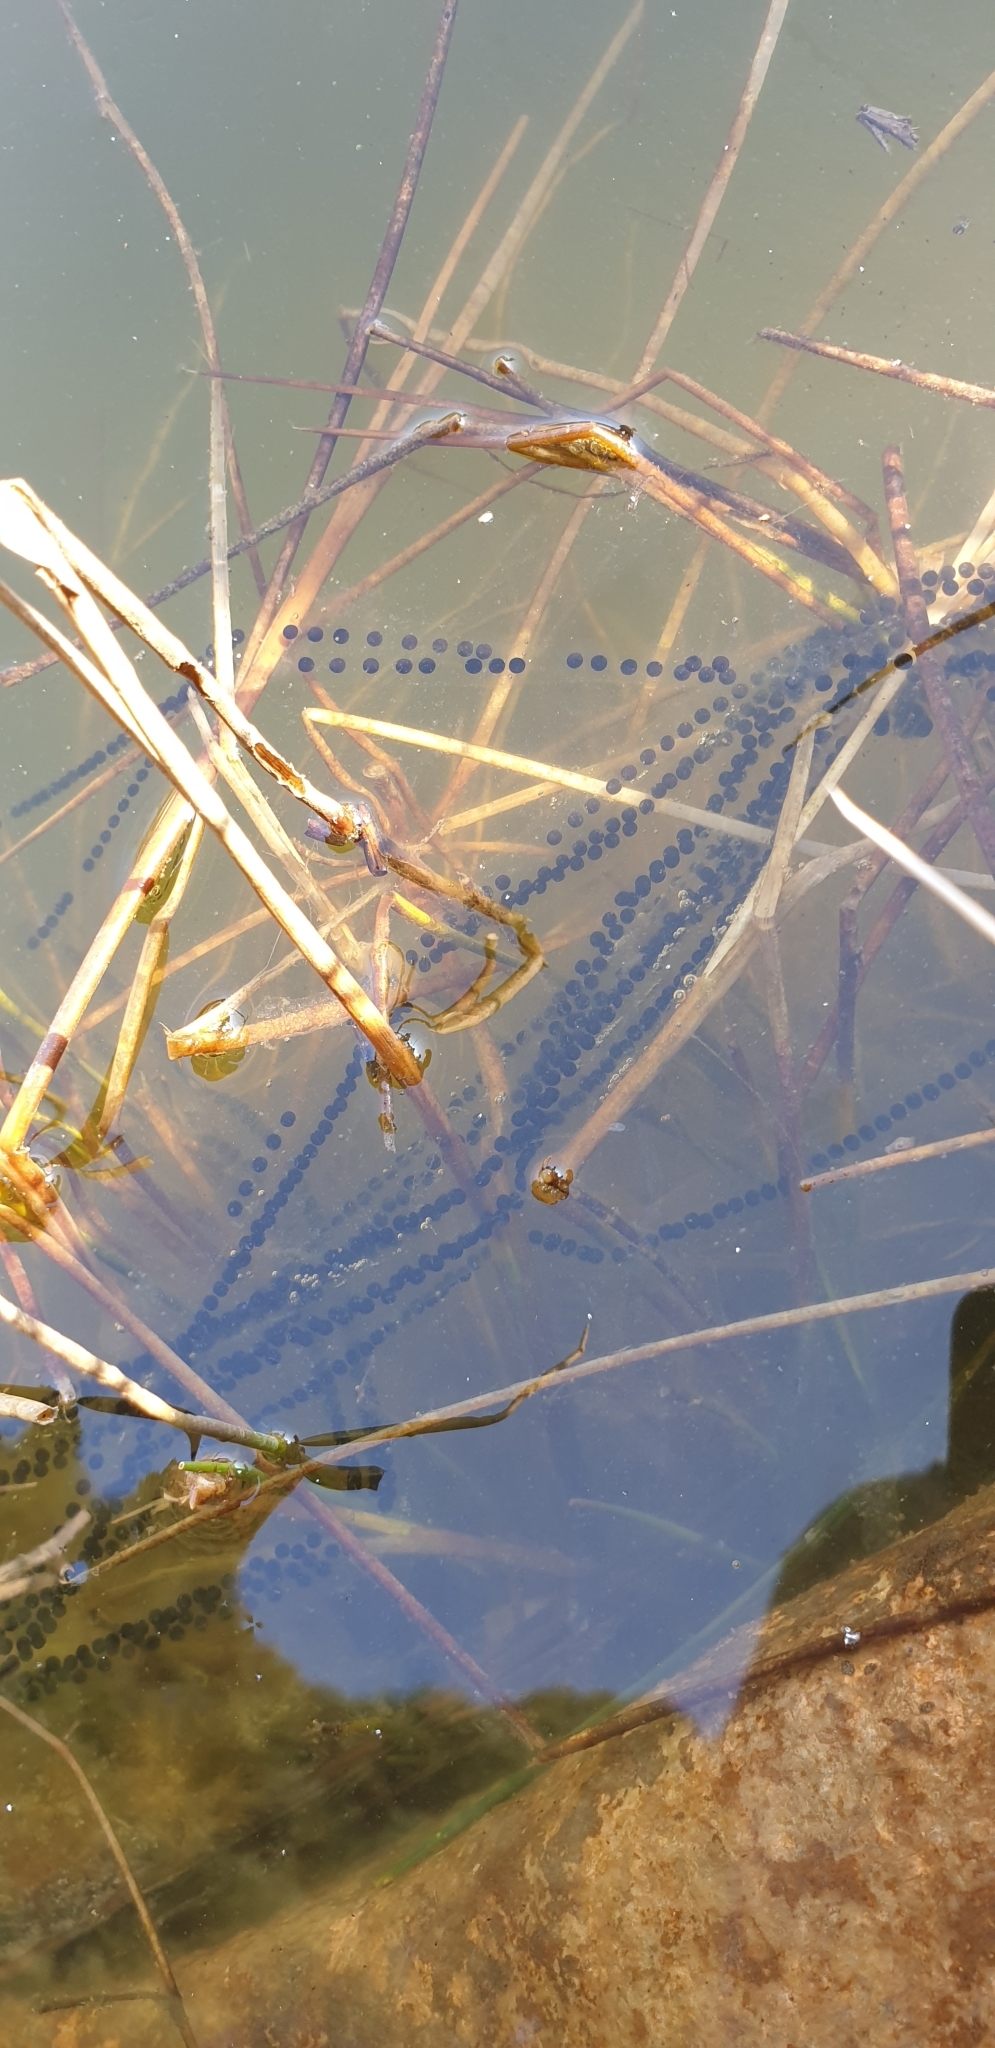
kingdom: Animalia
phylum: Chordata
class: Amphibia
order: Anura
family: Bufonidae
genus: Bufo
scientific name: Bufo bufo
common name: Common toad
